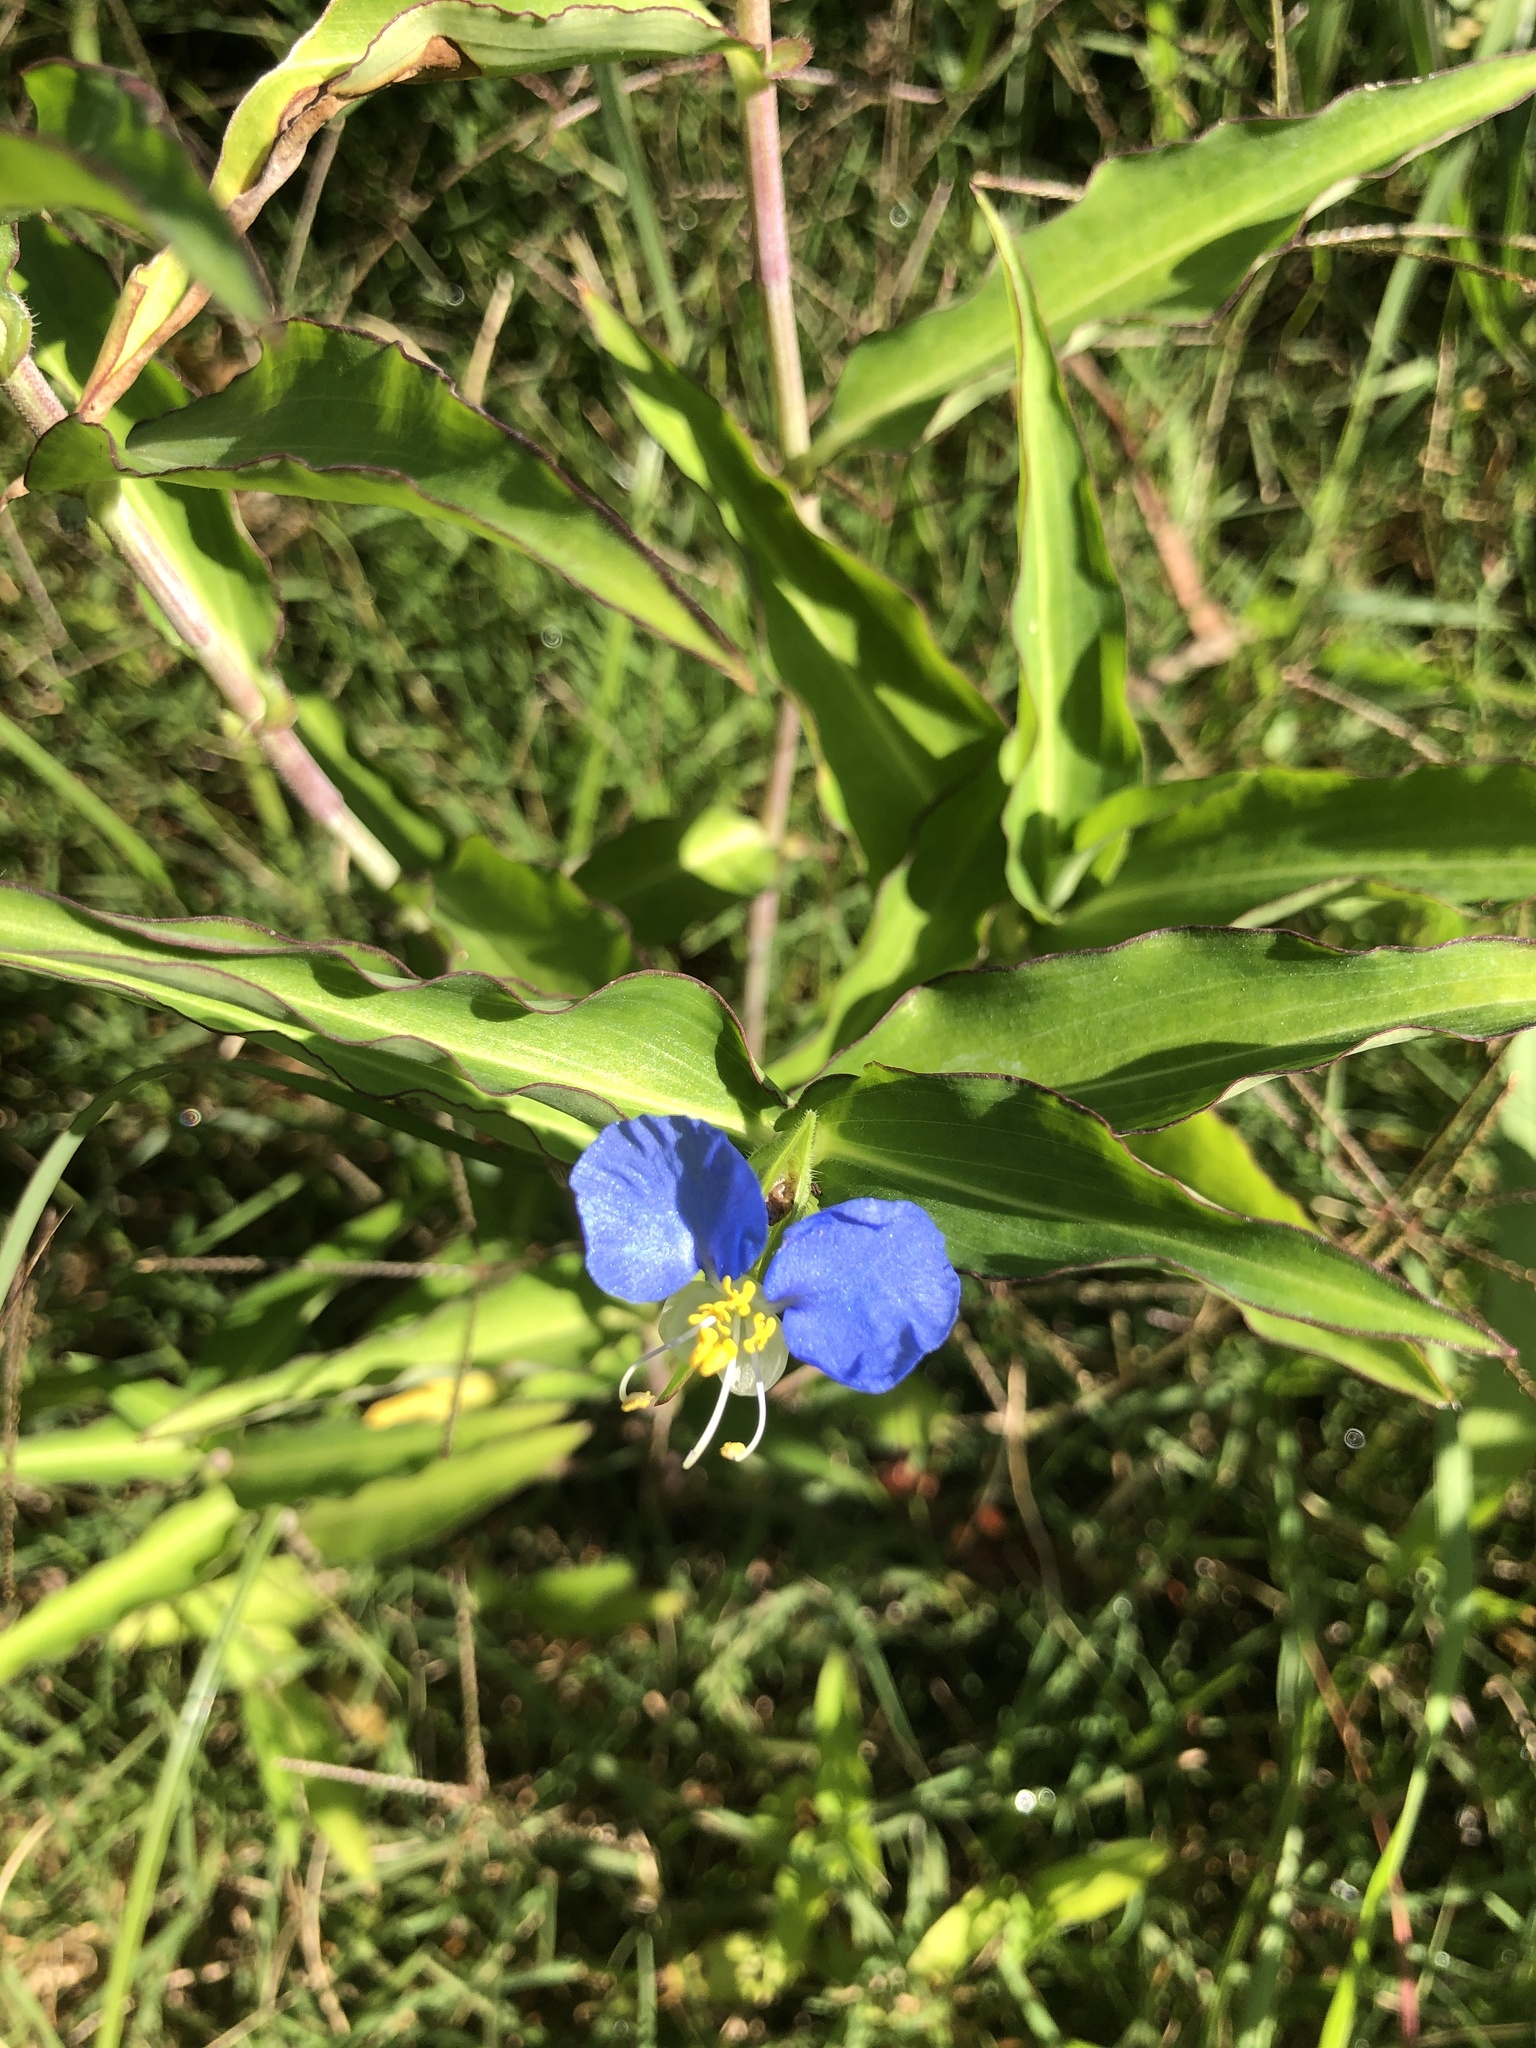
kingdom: Plantae
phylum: Tracheophyta
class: Liliopsida
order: Commelinales
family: Commelinaceae
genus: Commelina
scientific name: Commelina erecta
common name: Blousel blommetjie
